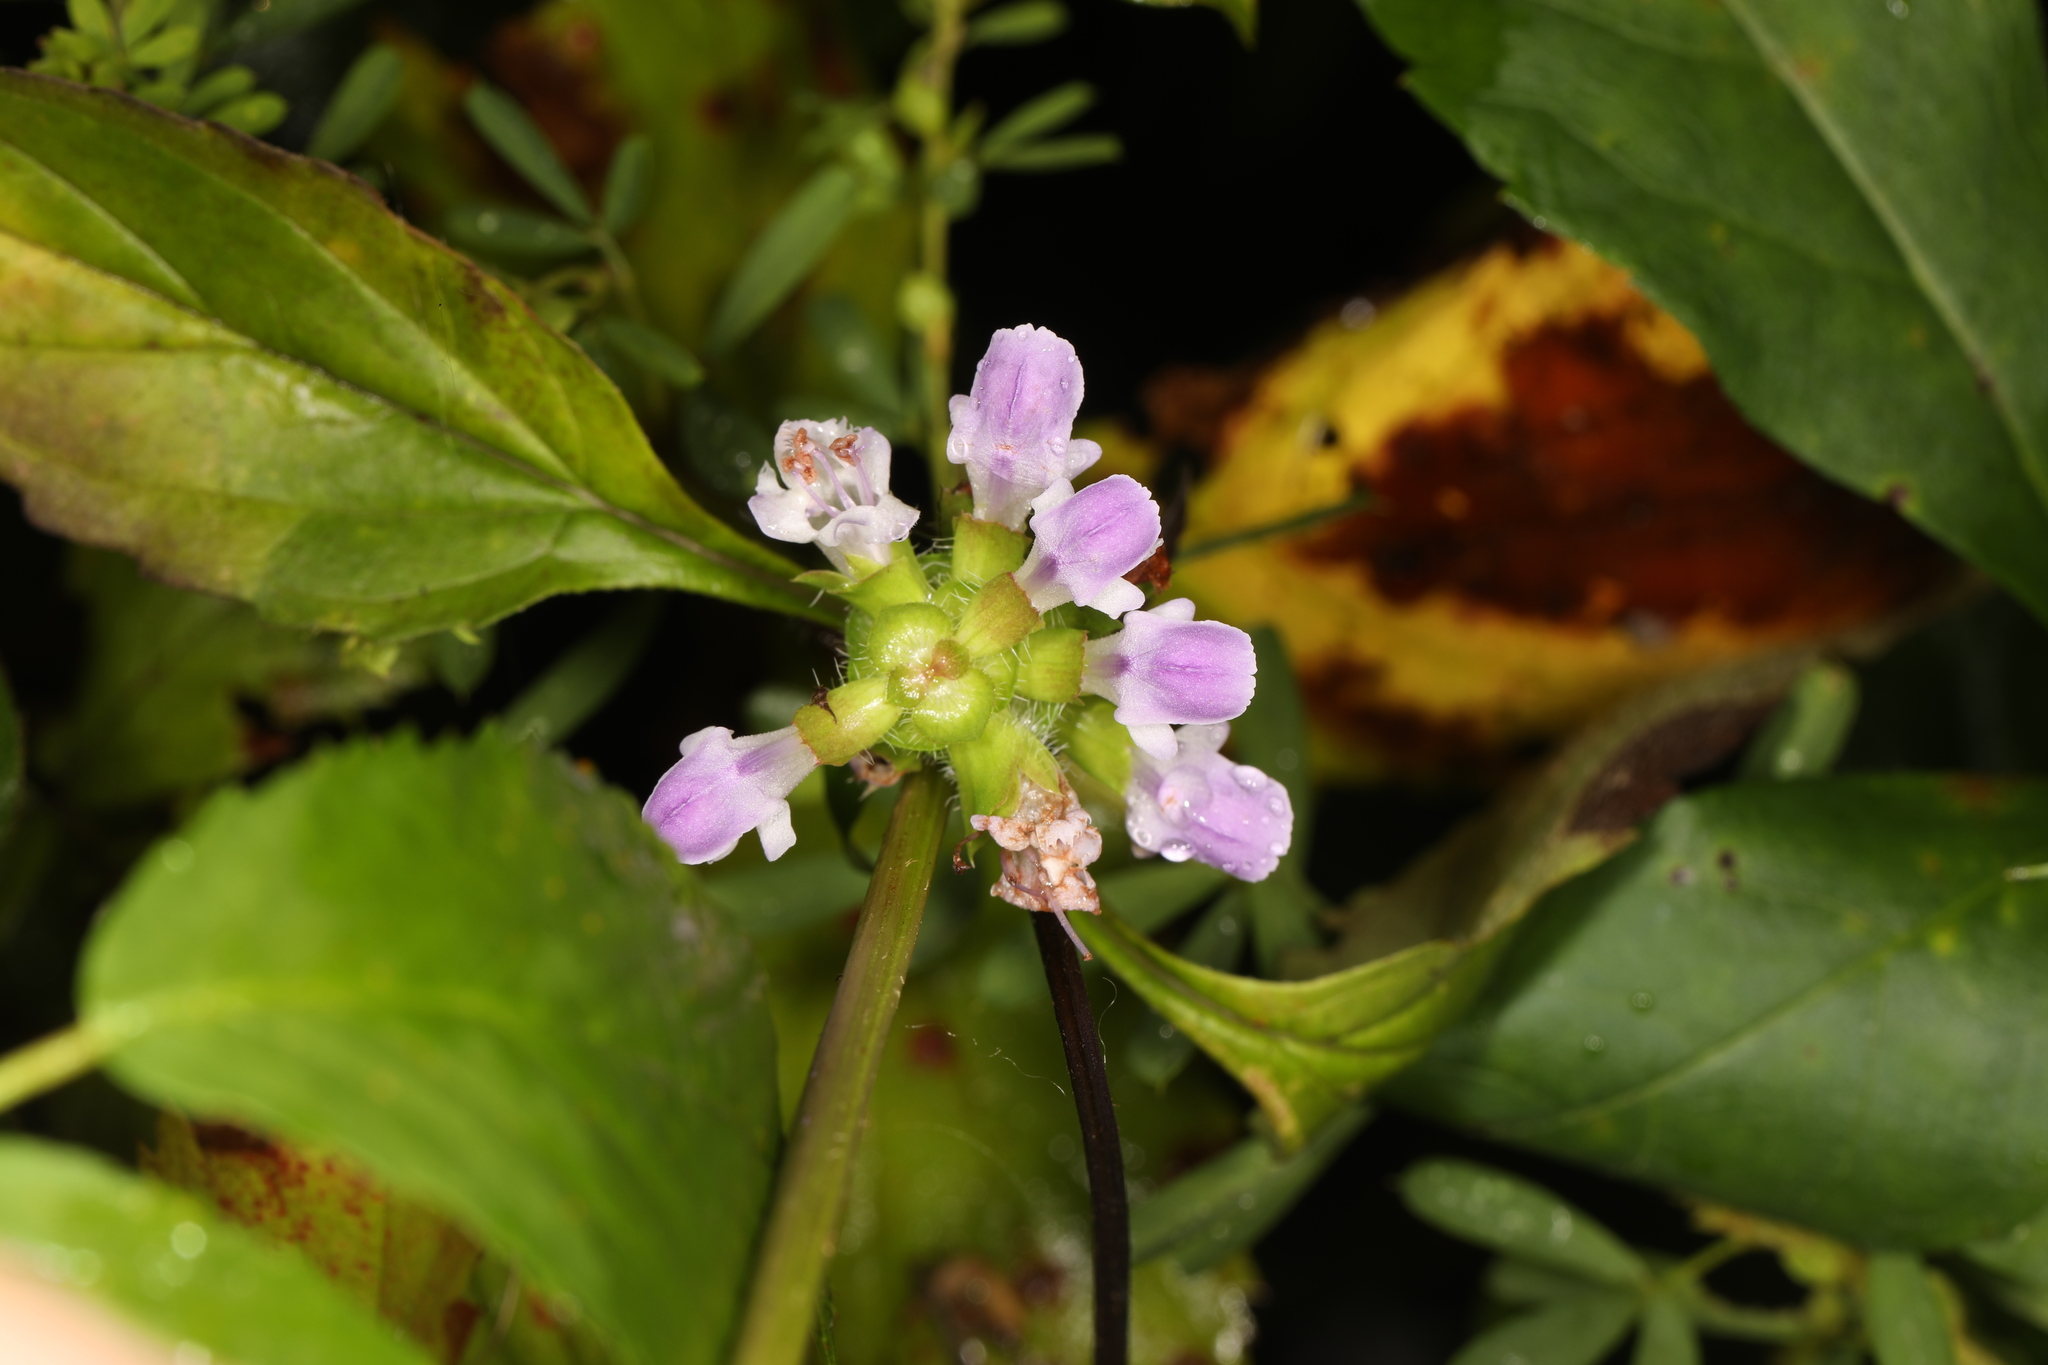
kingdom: Plantae
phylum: Tracheophyta
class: Magnoliopsida
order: Lamiales
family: Lamiaceae
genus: Prunella
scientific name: Prunella vulgaris
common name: Heal-all
